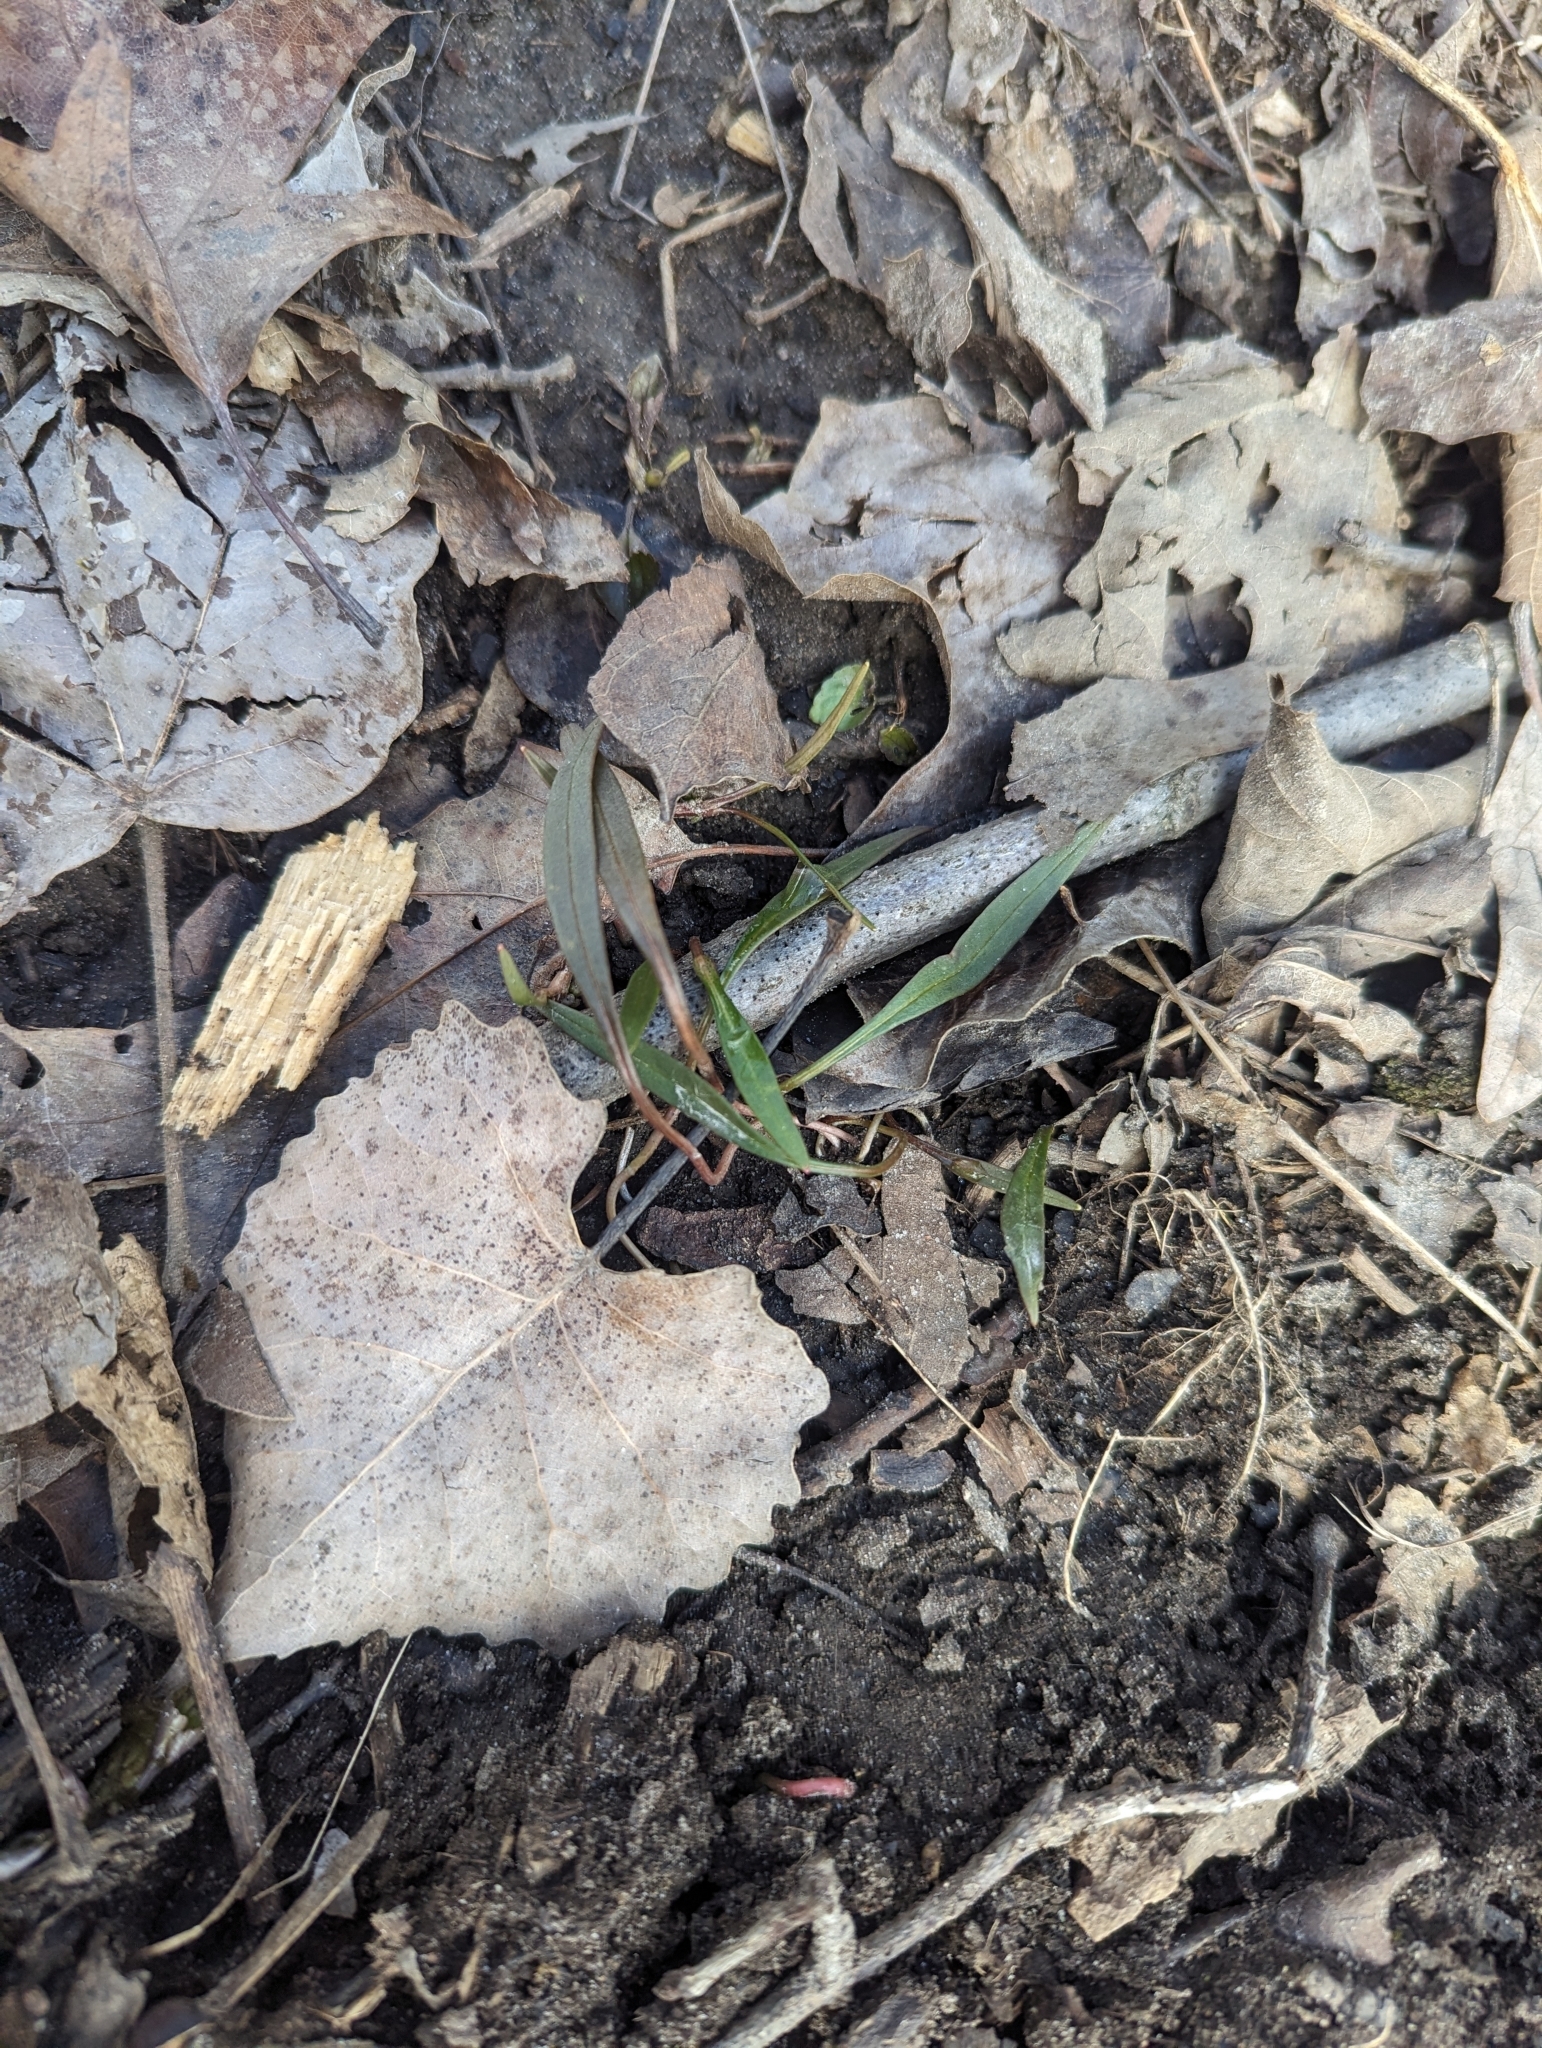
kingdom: Plantae
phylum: Tracheophyta
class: Magnoliopsida
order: Caryophyllales
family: Montiaceae
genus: Claytonia
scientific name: Claytonia virginica
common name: Virginia springbeauty
